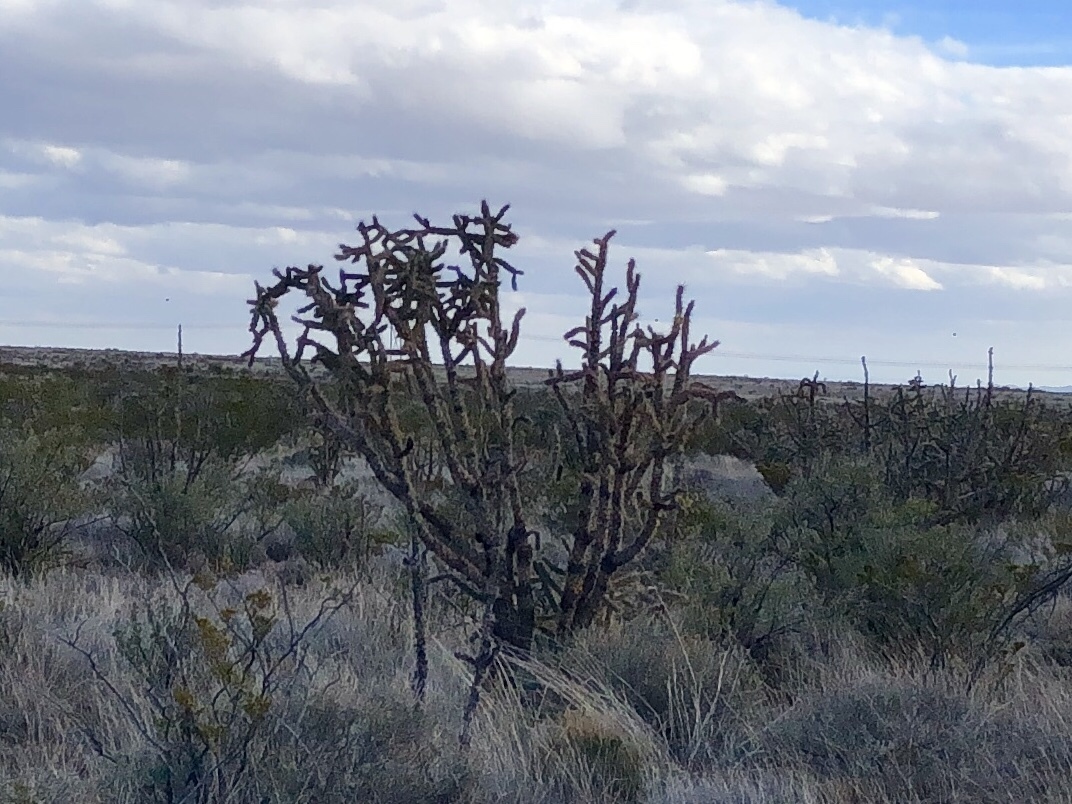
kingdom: Plantae
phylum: Tracheophyta
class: Magnoliopsida
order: Caryophyllales
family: Cactaceae
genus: Cylindropuntia
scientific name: Cylindropuntia imbricata
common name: Candelabrum cactus
